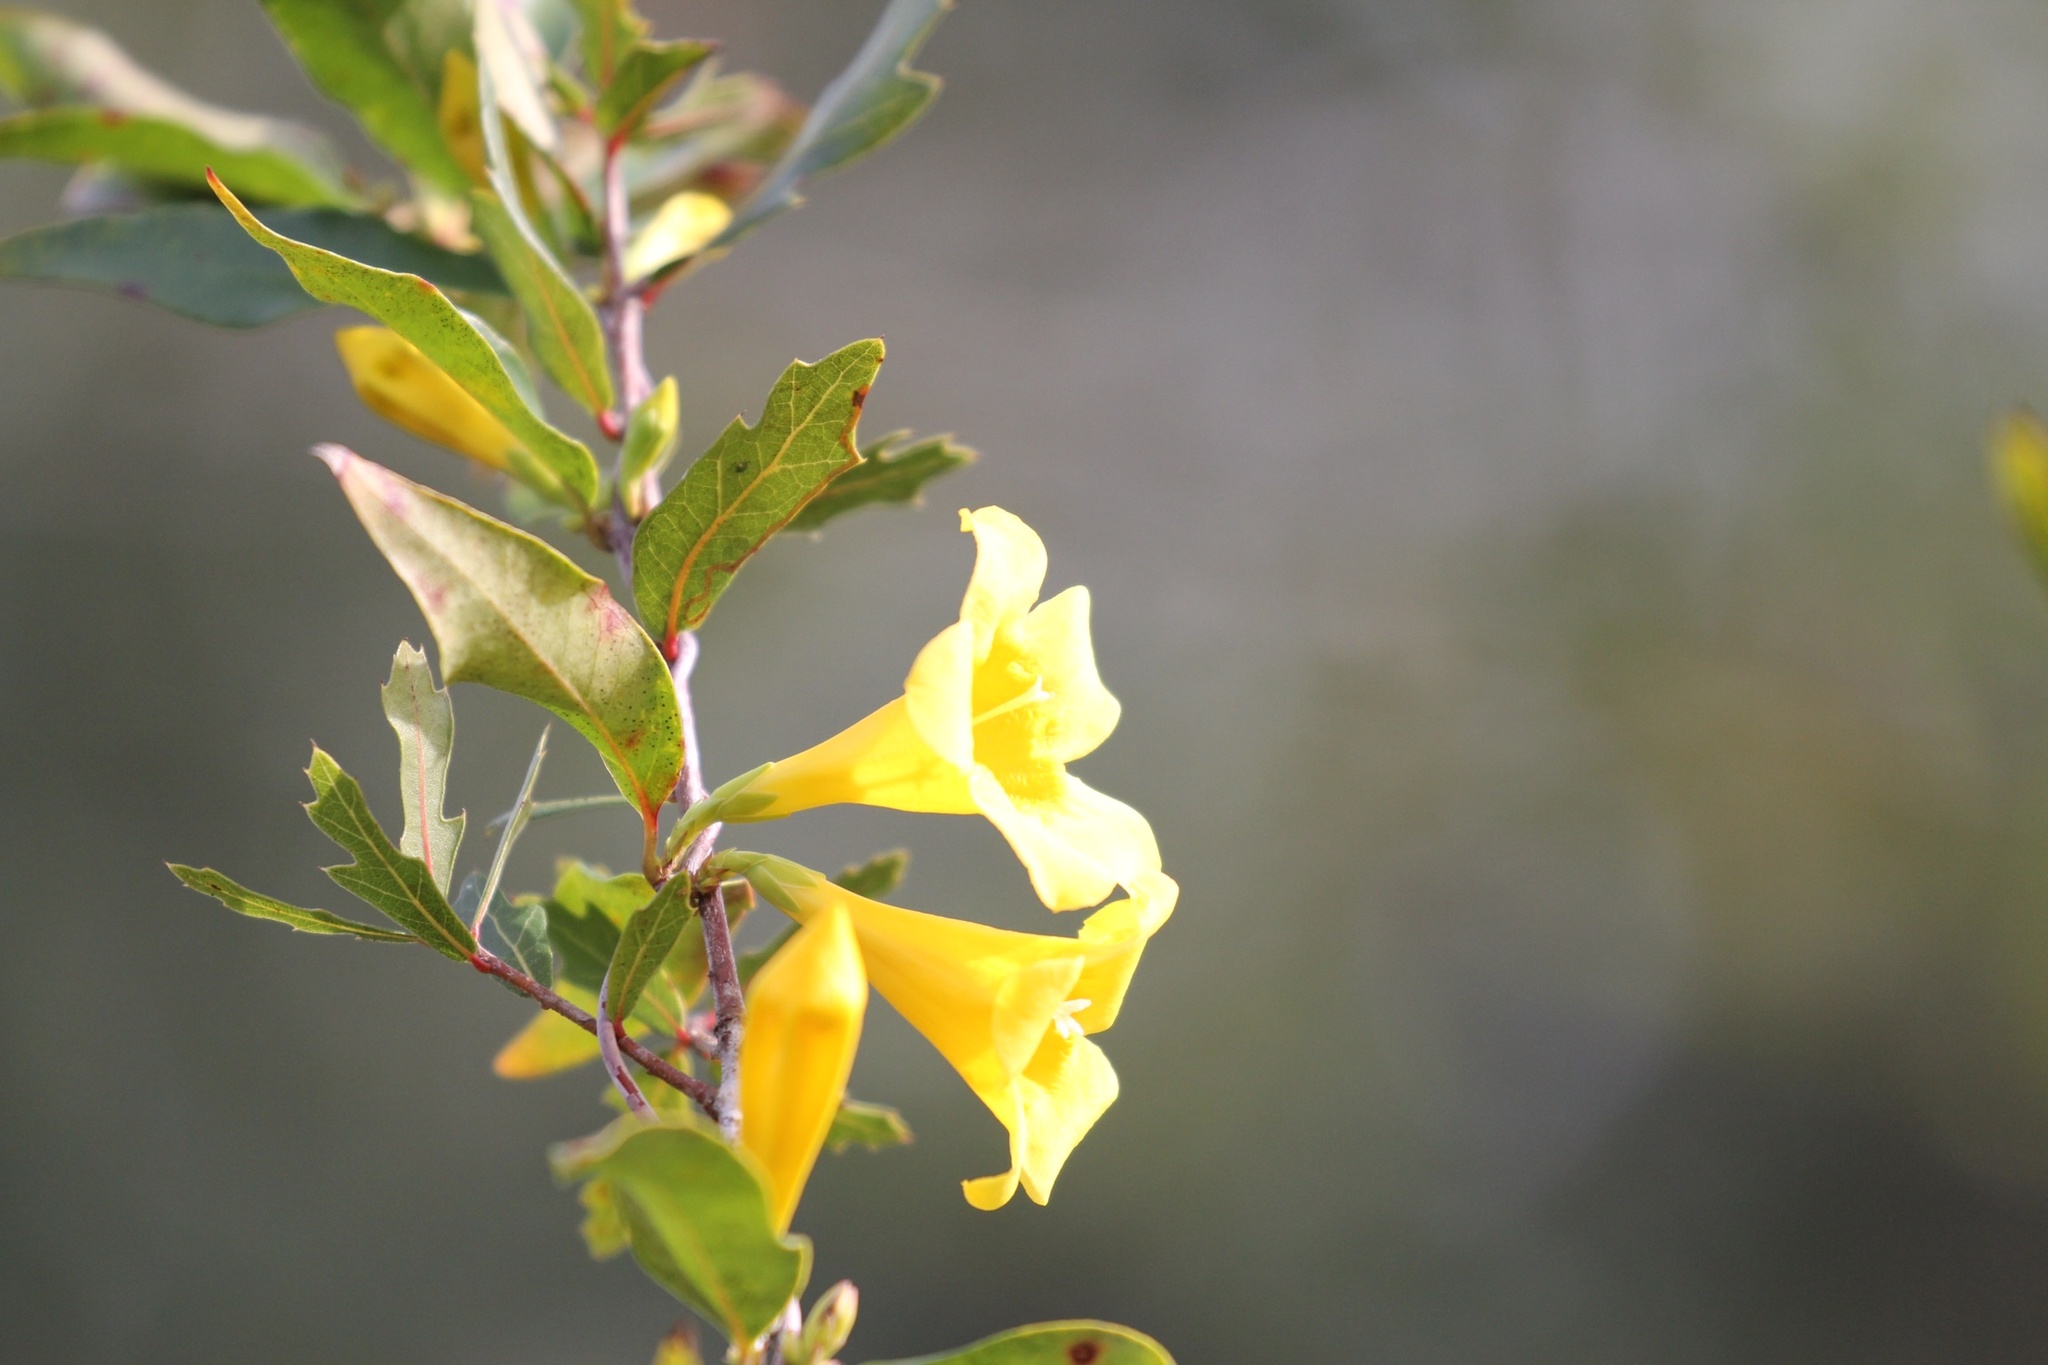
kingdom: Plantae
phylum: Tracheophyta
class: Magnoliopsida
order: Gentianales
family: Gelsemiaceae
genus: Gelsemium
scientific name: Gelsemium sempervirens
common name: Carolina-jasmine
